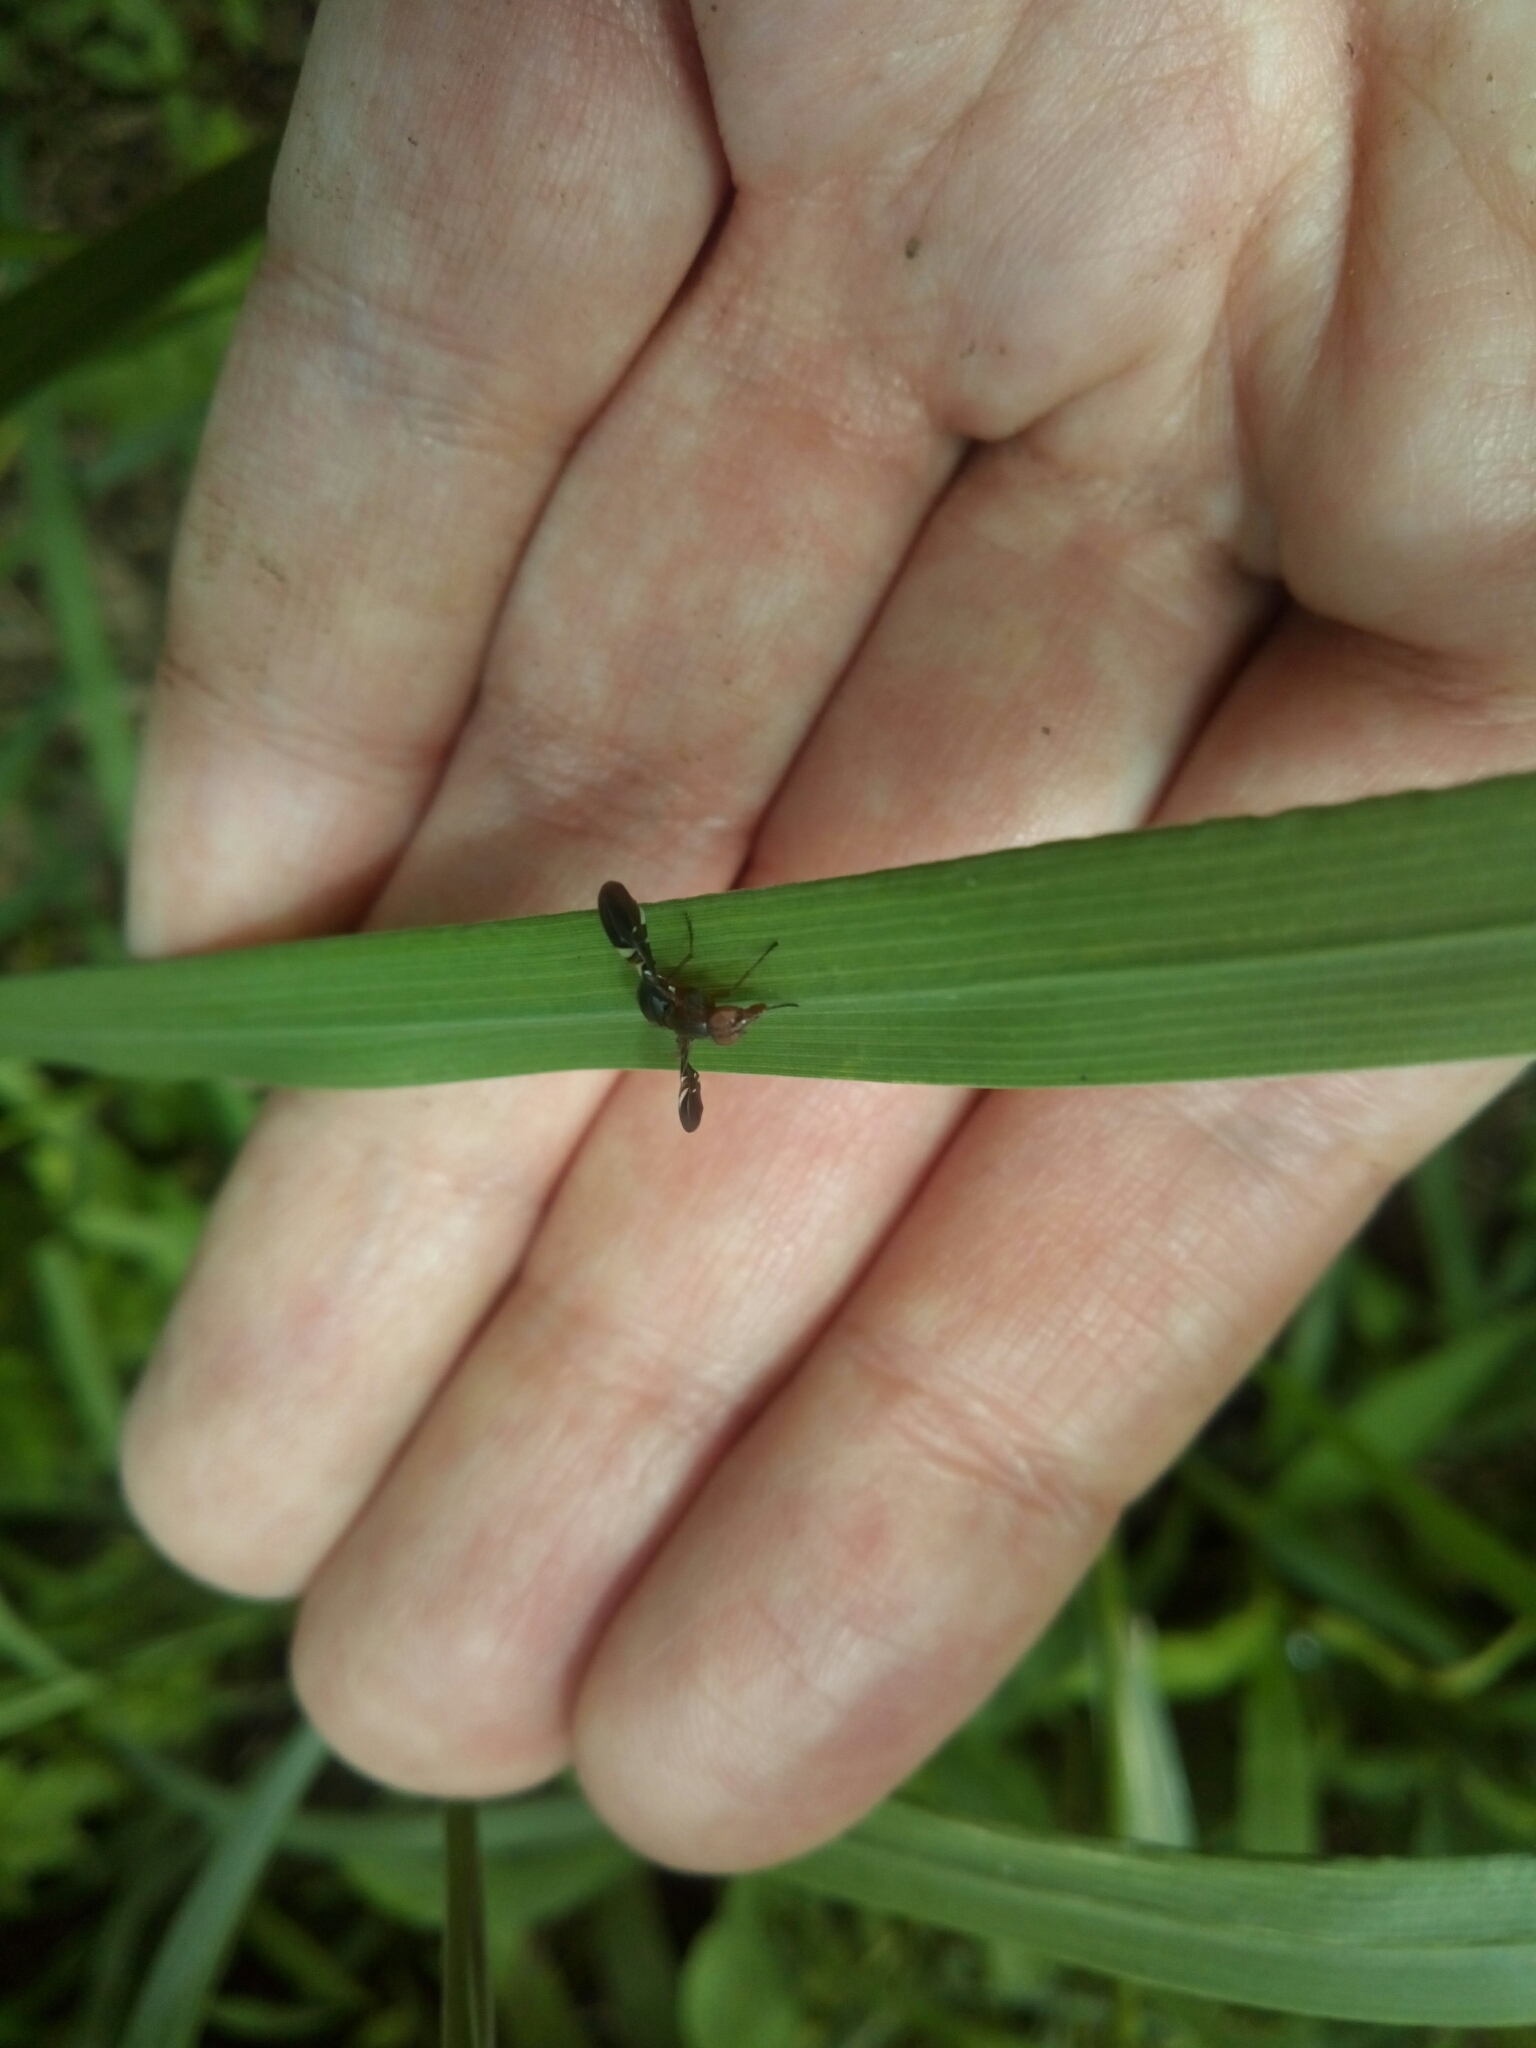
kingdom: Animalia
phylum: Arthropoda
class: Insecta
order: Diptera
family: Ulidiidae
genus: Delphinia
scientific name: Delphinia picta
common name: Common picture-winged fly
